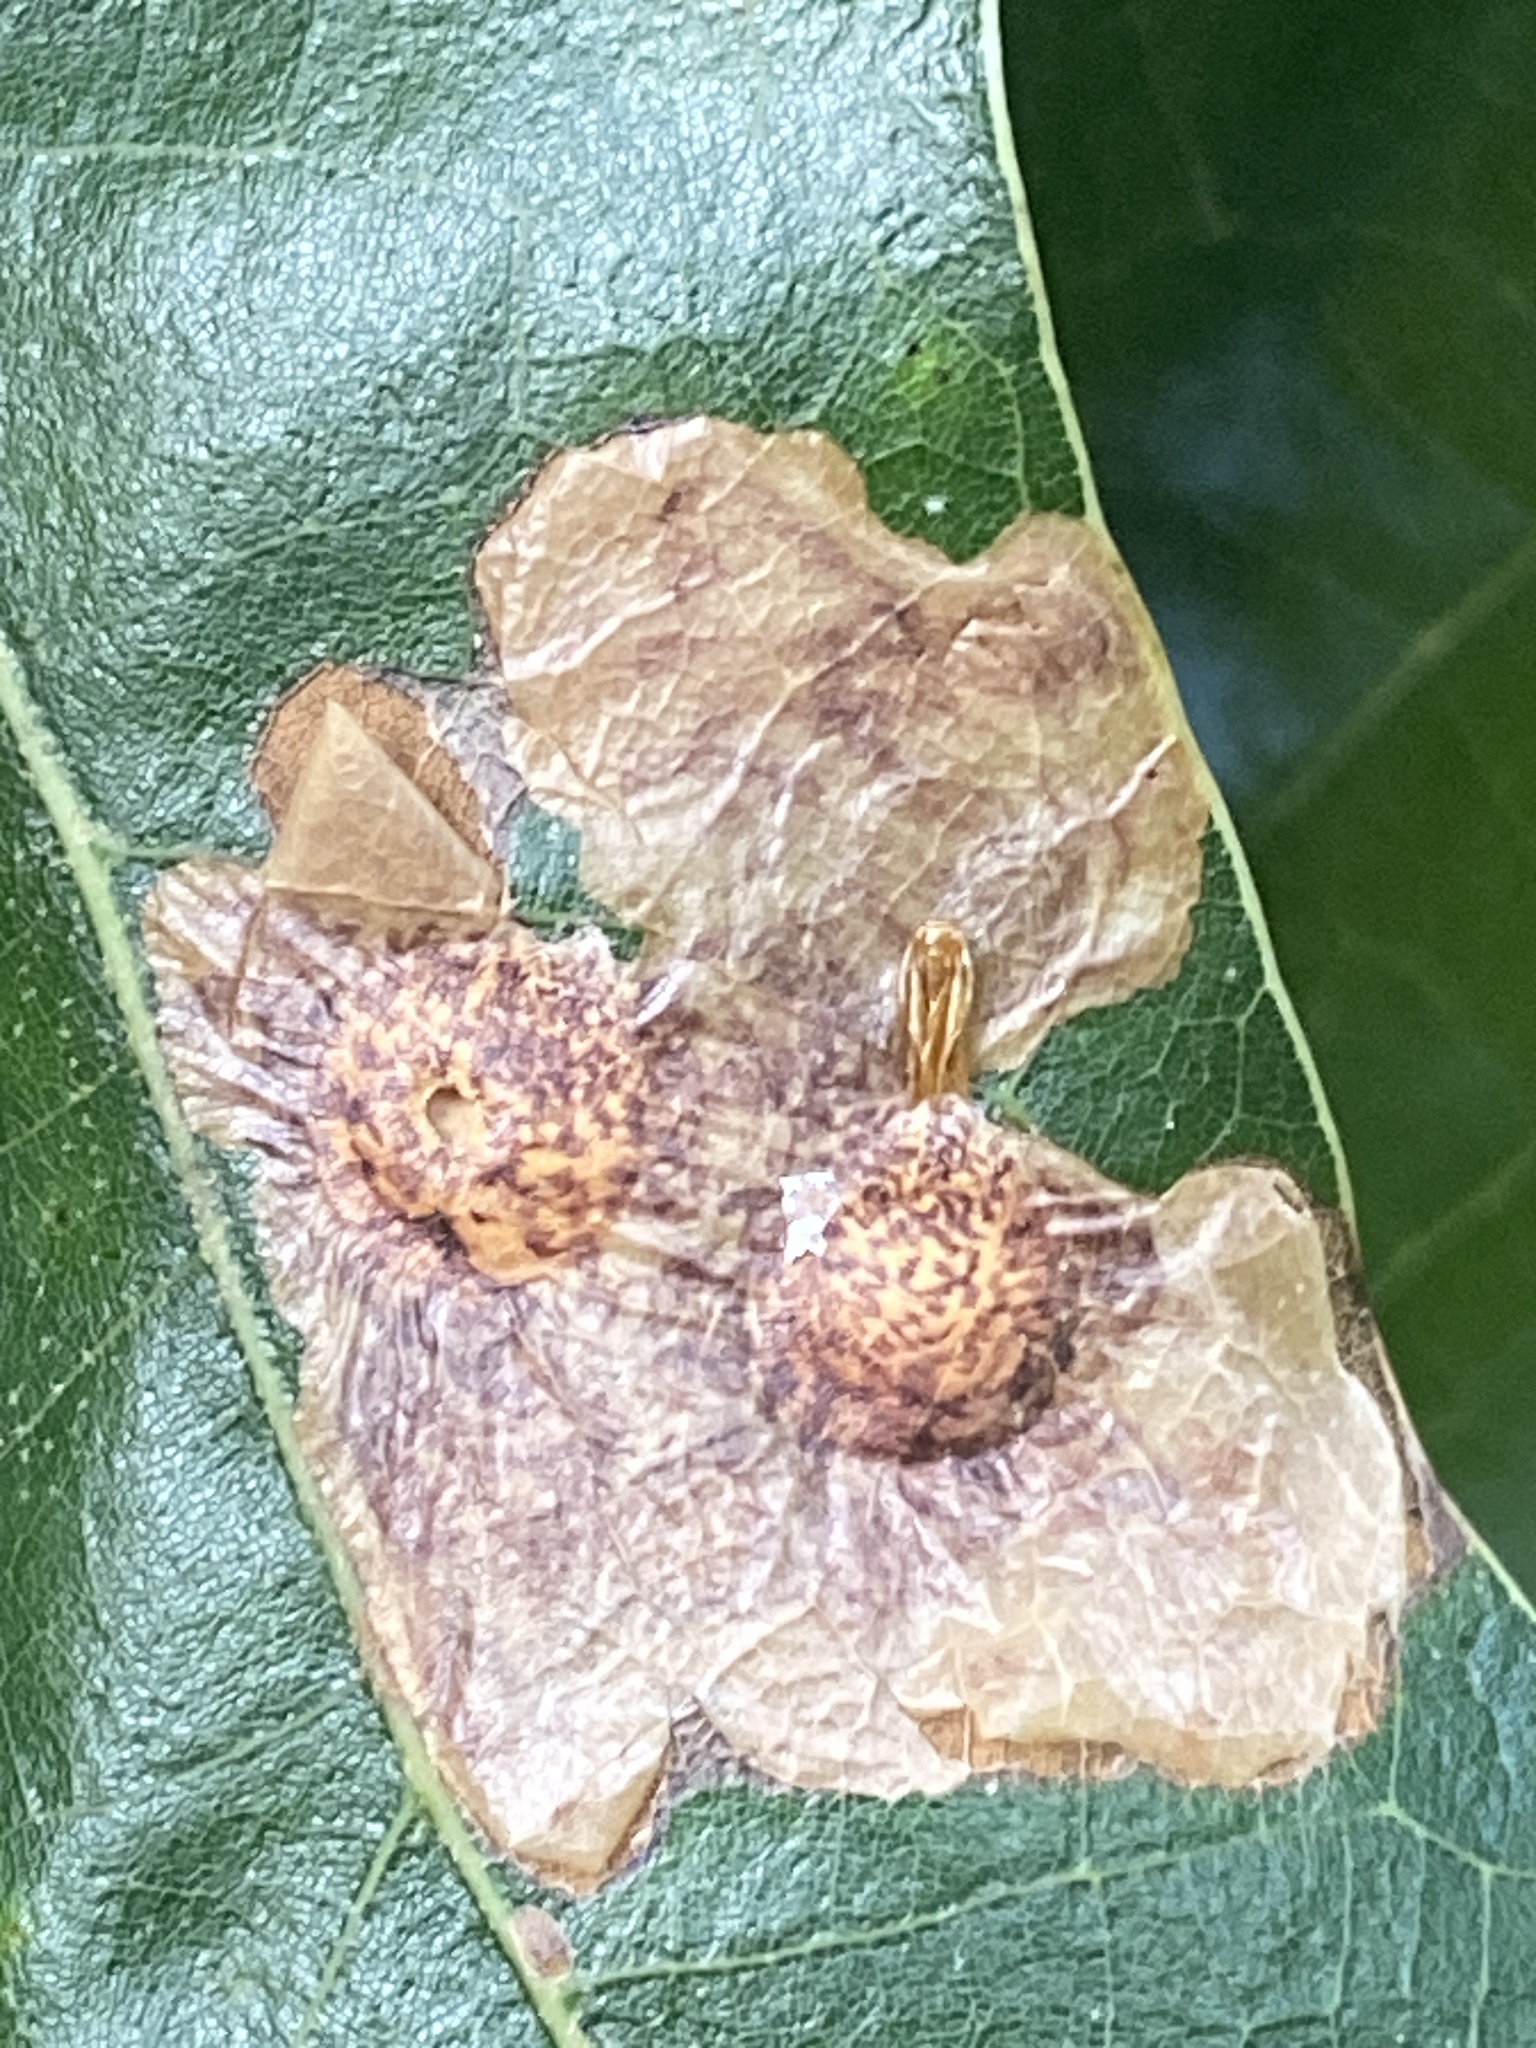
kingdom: Animalia
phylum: Arthropoda
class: Insecta
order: Lepidoptera
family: Tischeriidae
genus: Tischeria
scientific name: Tischeria quercitella
